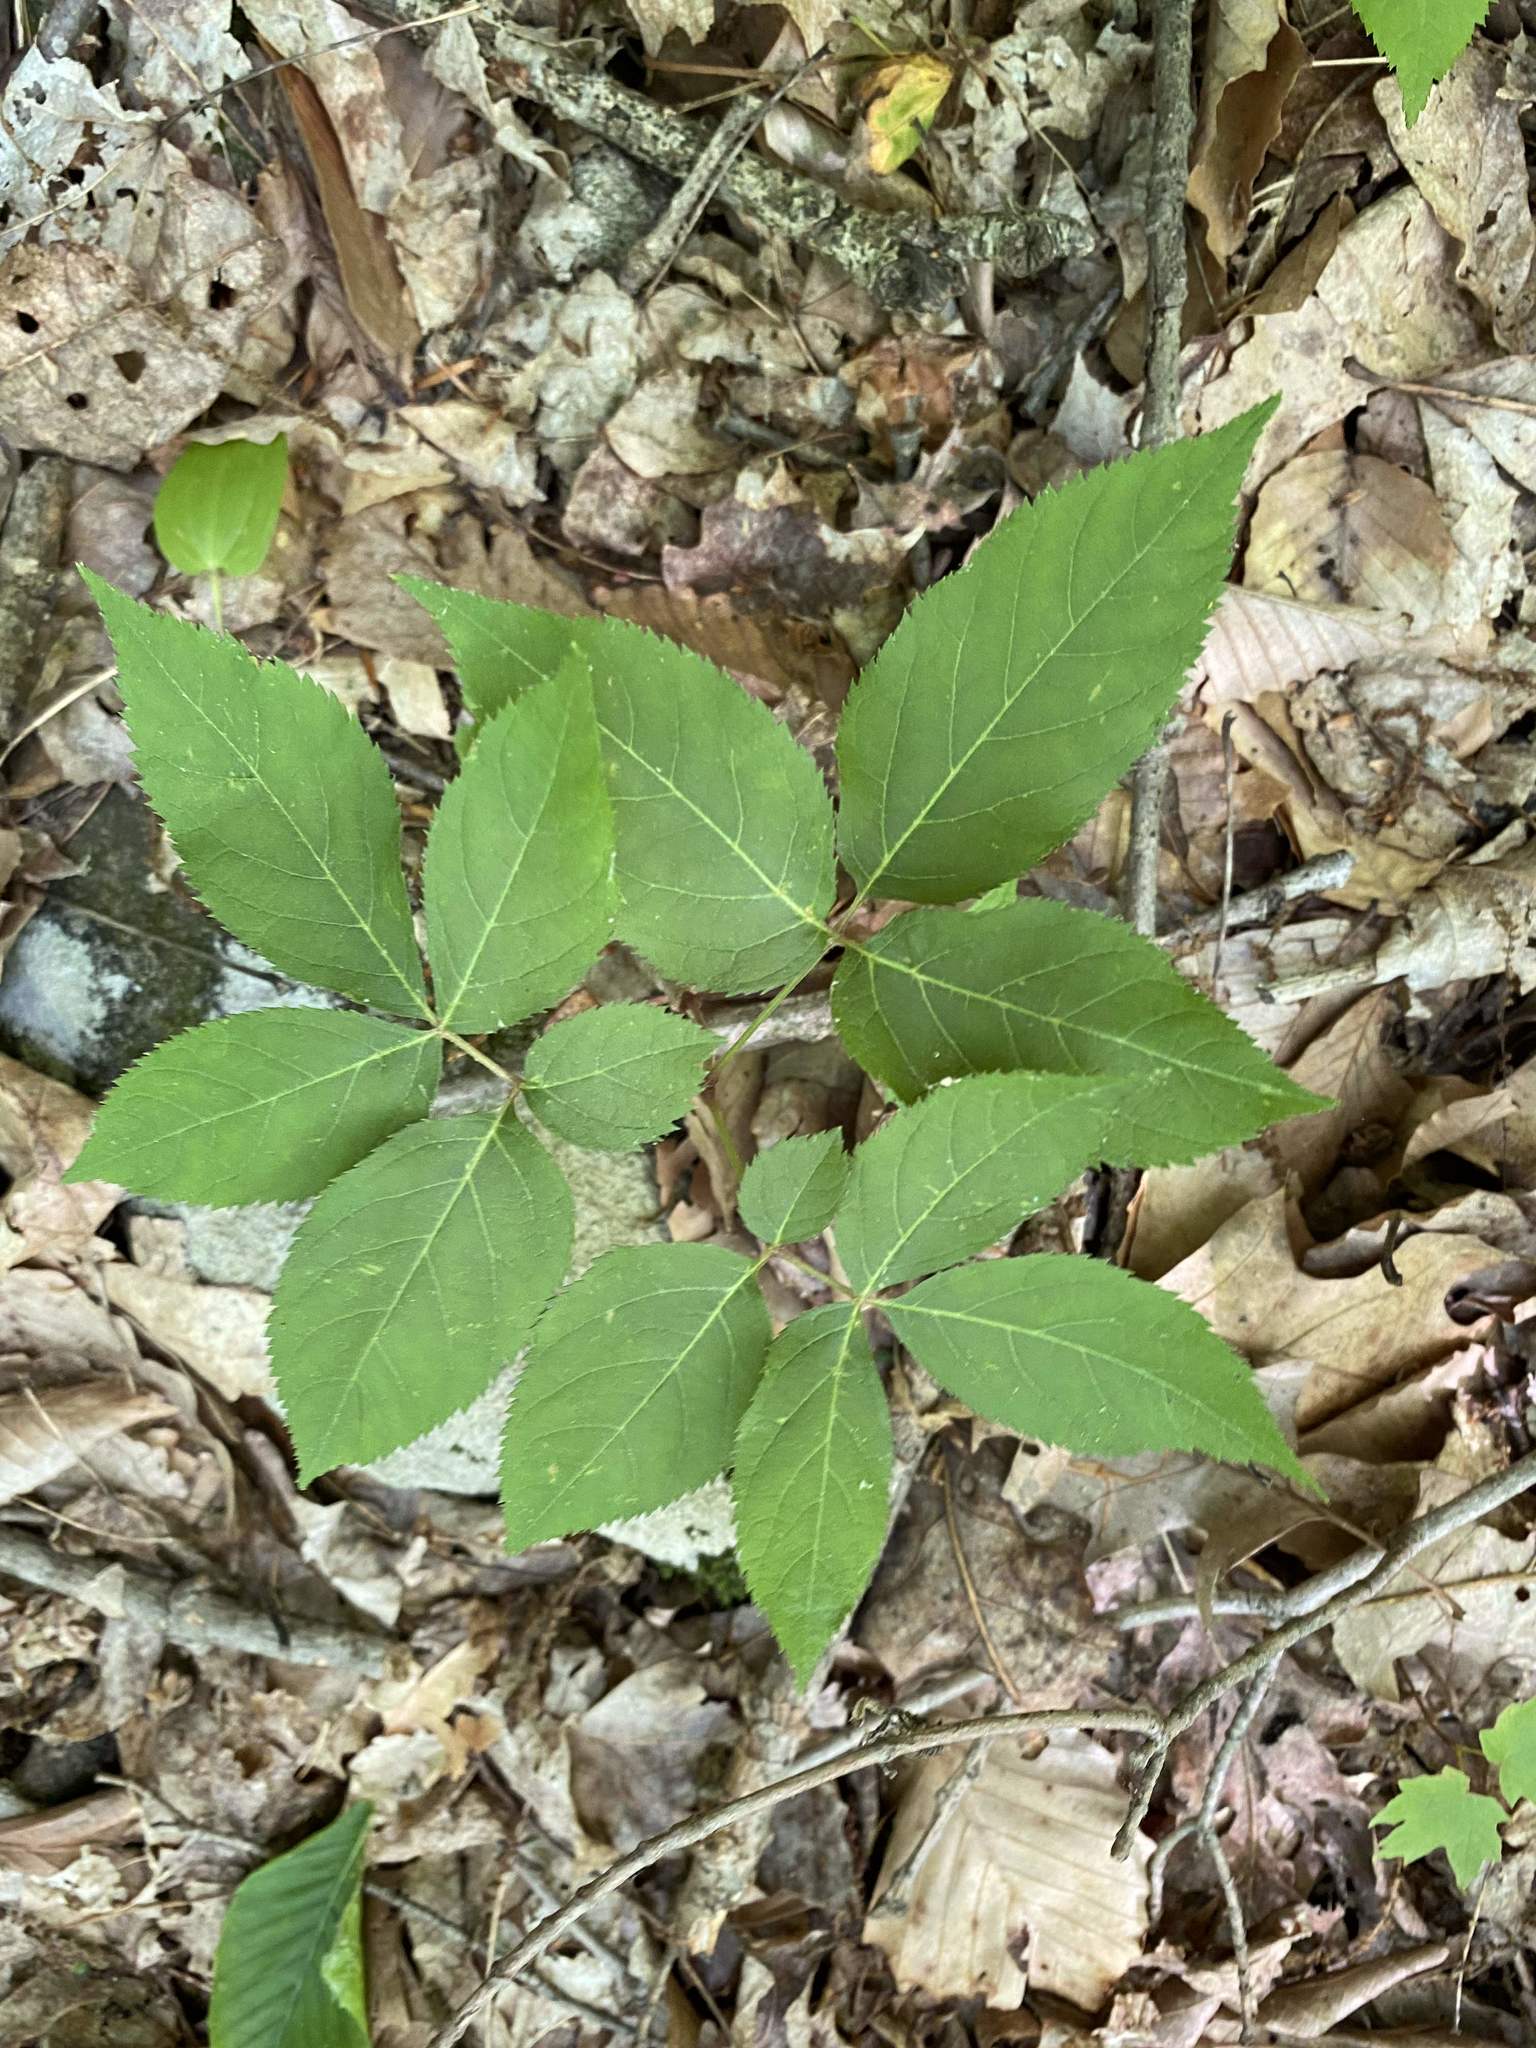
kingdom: Plantae
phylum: Tracheophyta
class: Magnoliopsida
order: Apiales
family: Araliaceae
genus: Aralia
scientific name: Aralia nudicaulis
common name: Wild sarsaparilla
